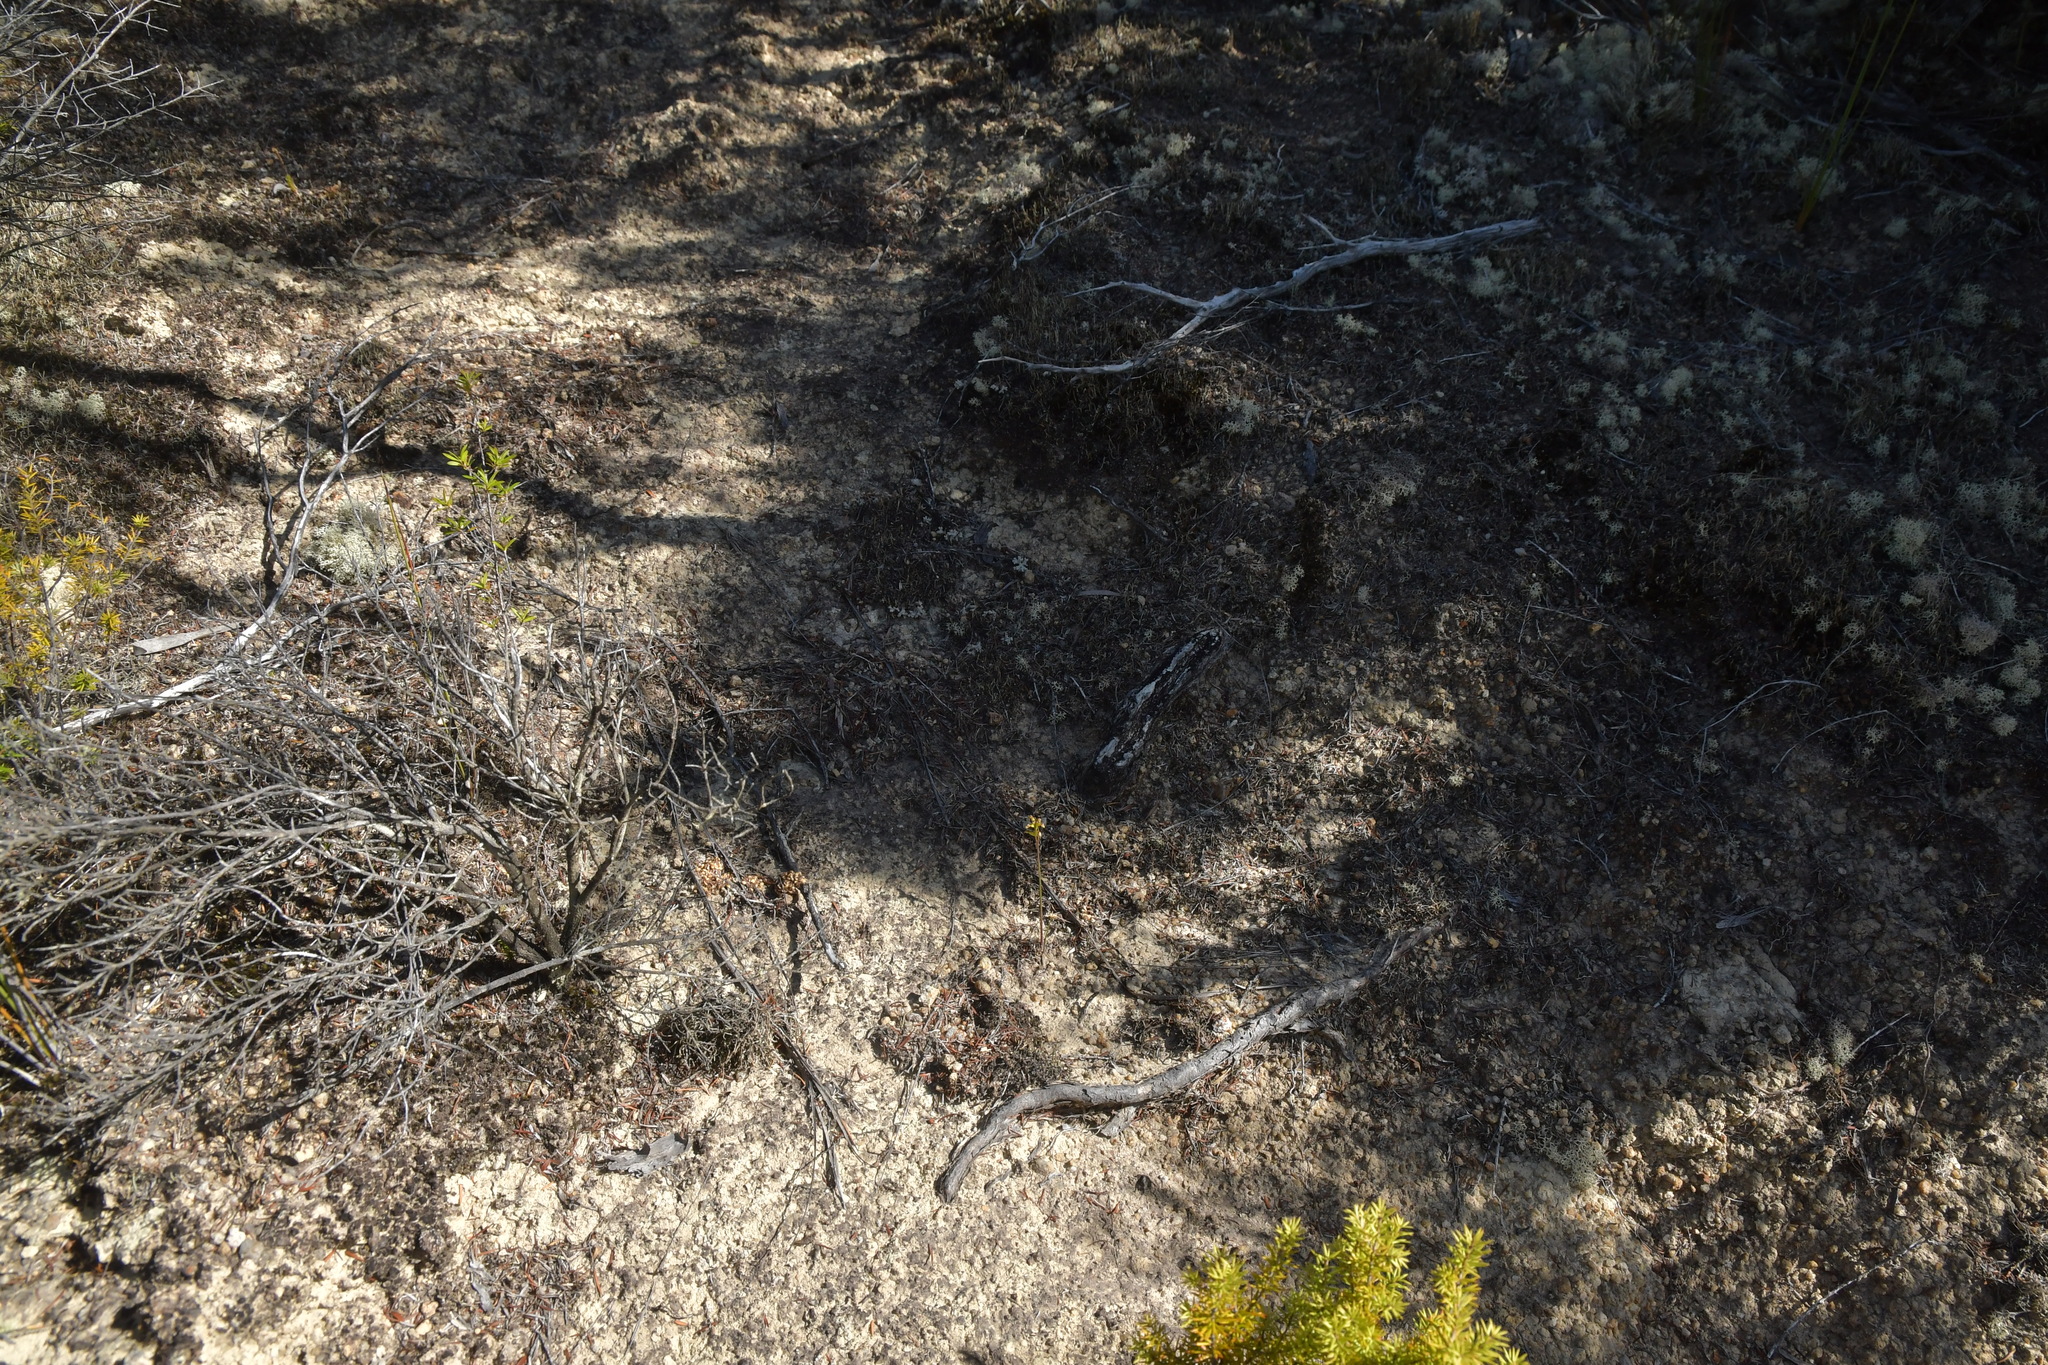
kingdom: Plantae
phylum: Tracheophyta
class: Liliopsida
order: Asparagales
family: Orchidaceae
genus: Genoplesium
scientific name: Genoplesium pumilum
